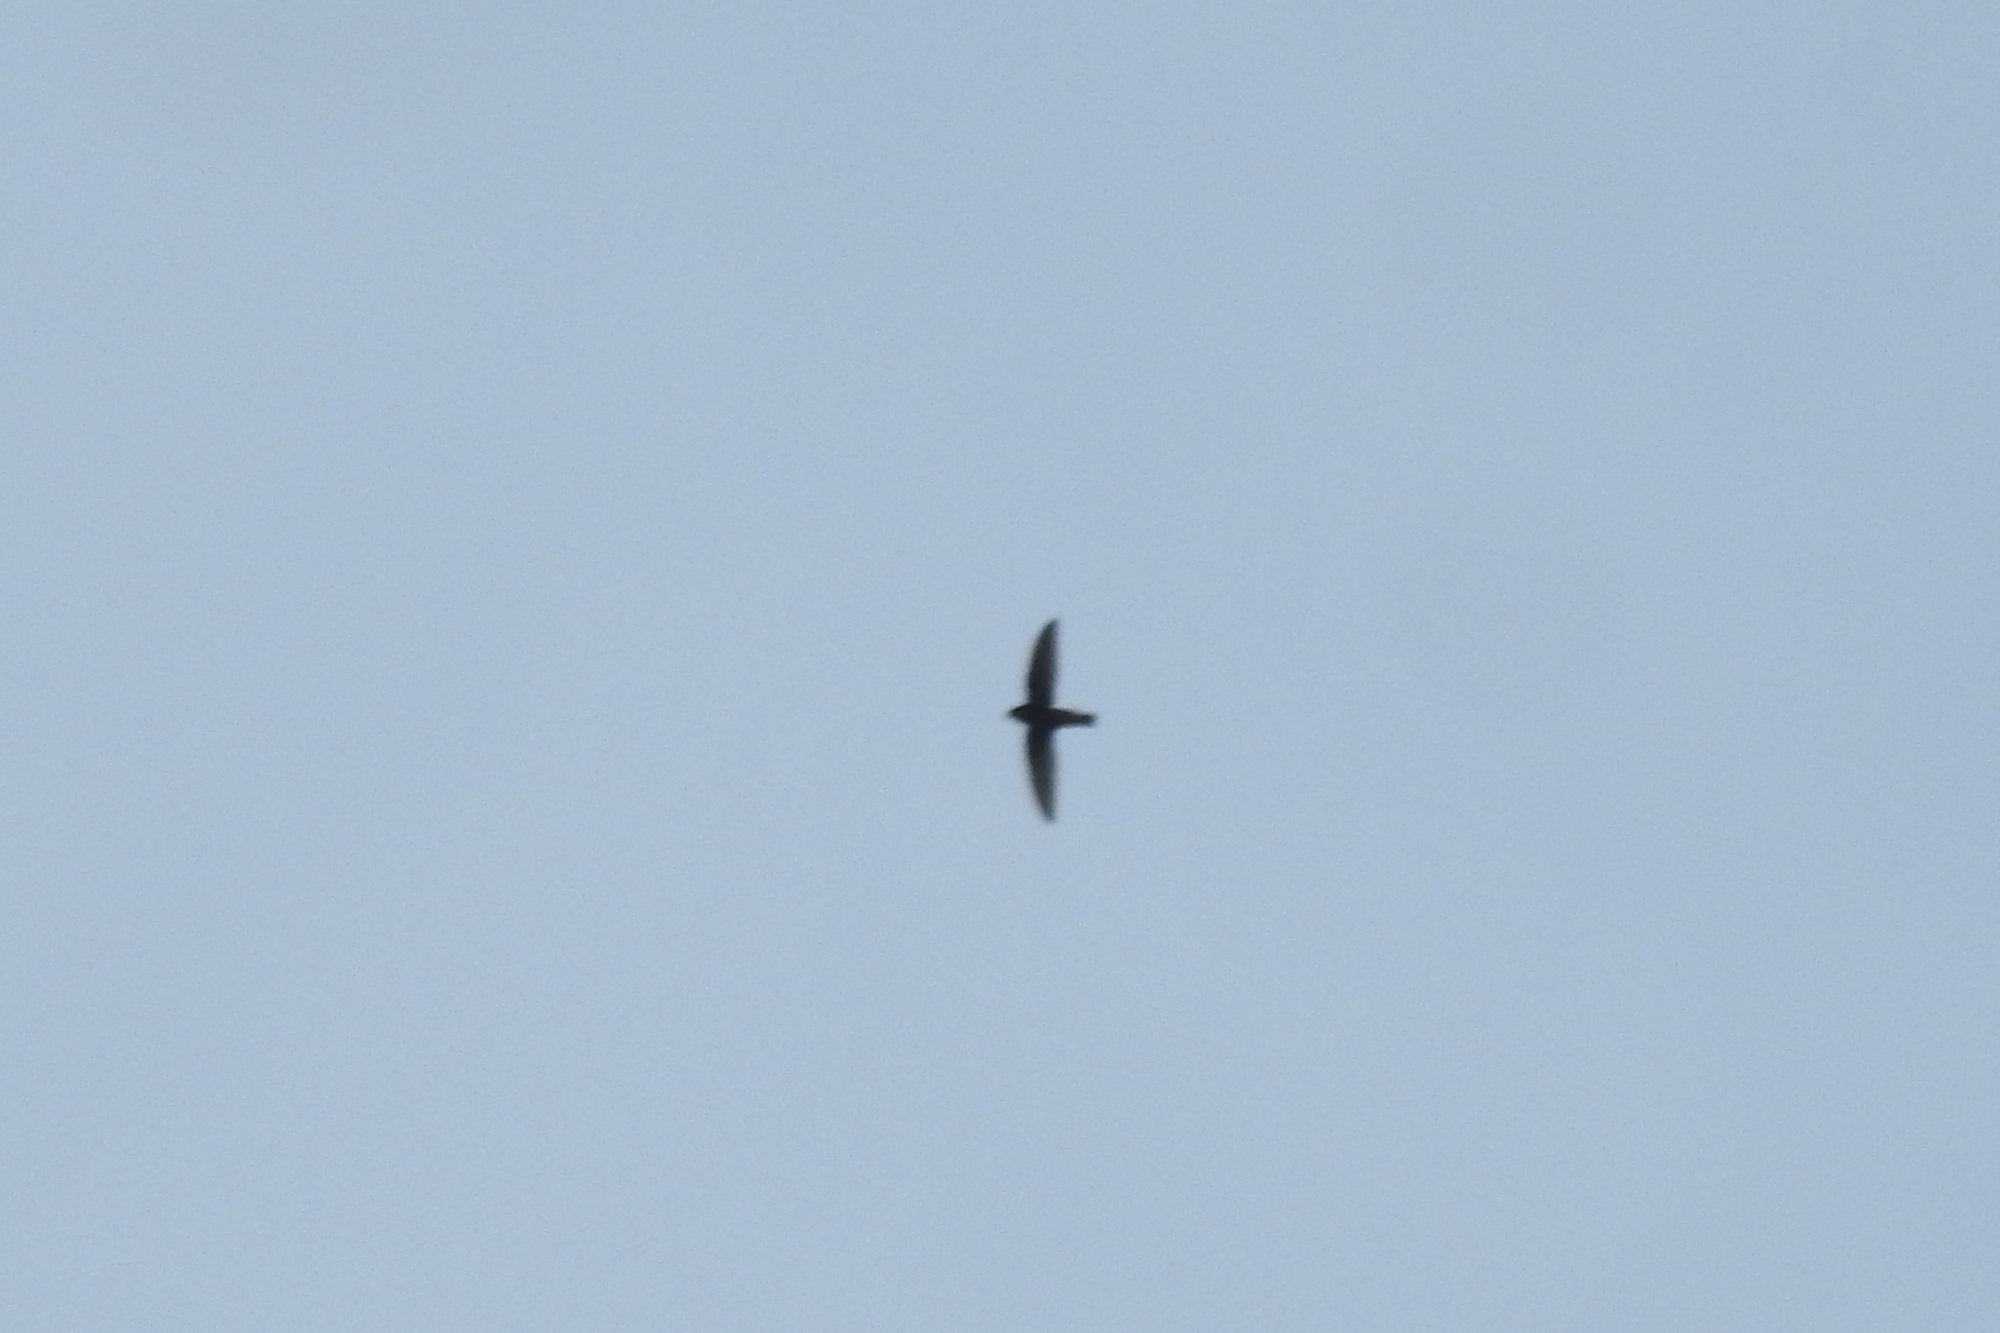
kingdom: Animalia
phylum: Chordata
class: Aves
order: Apodiformes
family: Apodidae
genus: Apus
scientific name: Apus affinis
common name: Little swift
